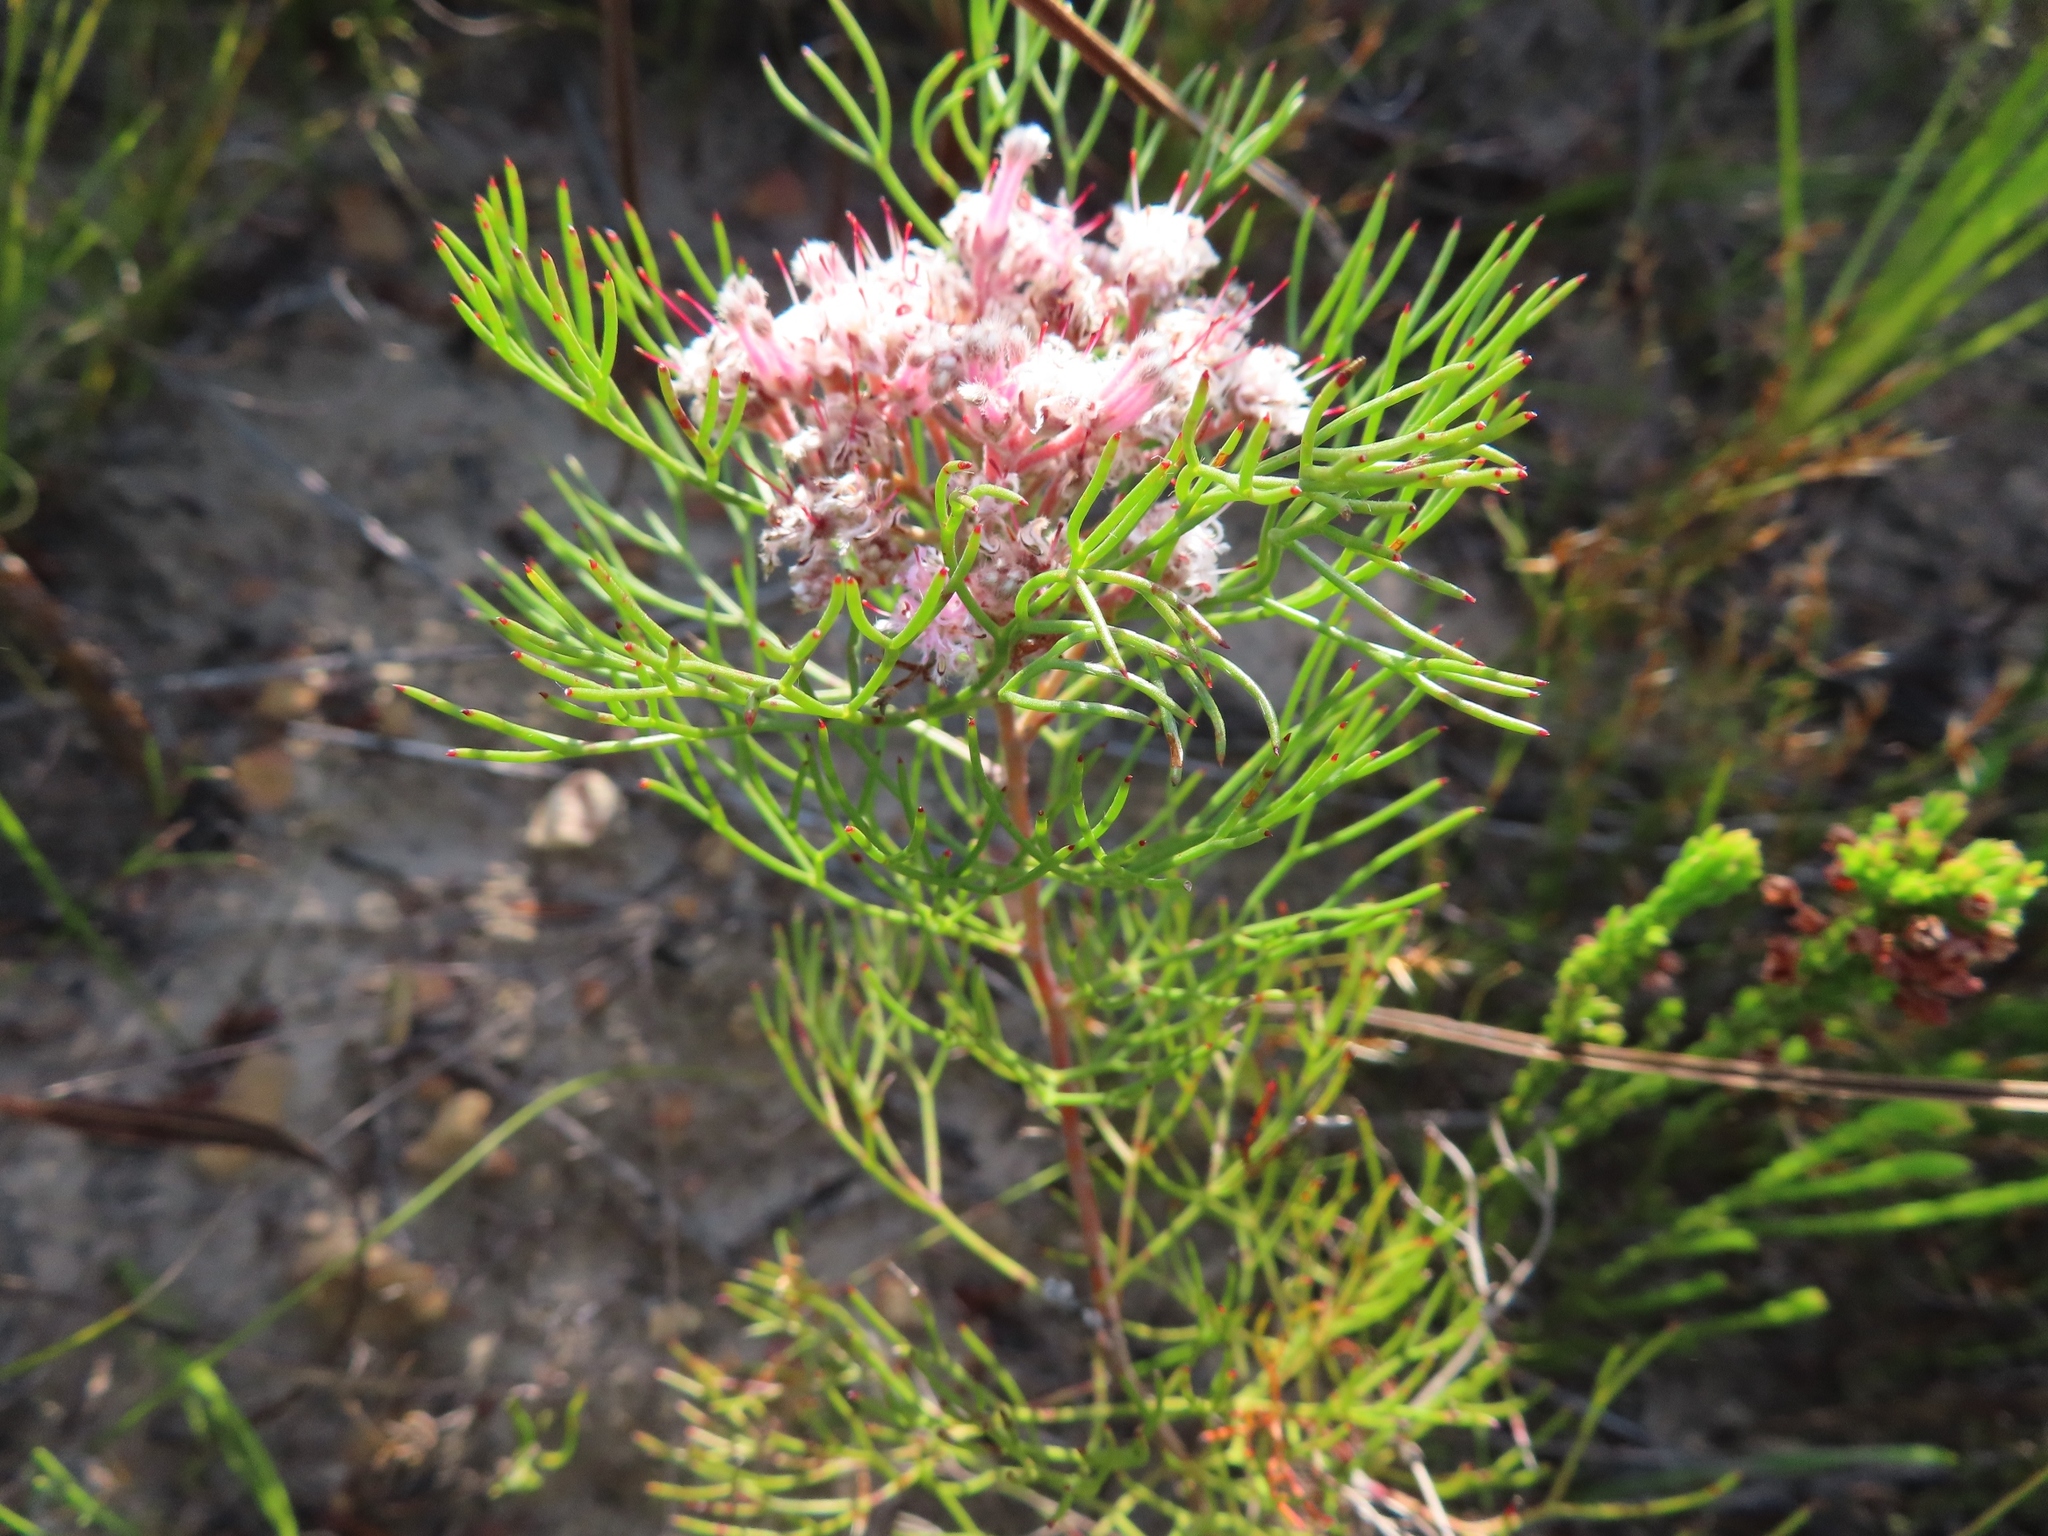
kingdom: Plantae
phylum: Tracheophyta
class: Magnoliopsida
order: Proteales
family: Proteaceae
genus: Serruria
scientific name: Serruria fasciflora
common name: Common pin spiderhead
